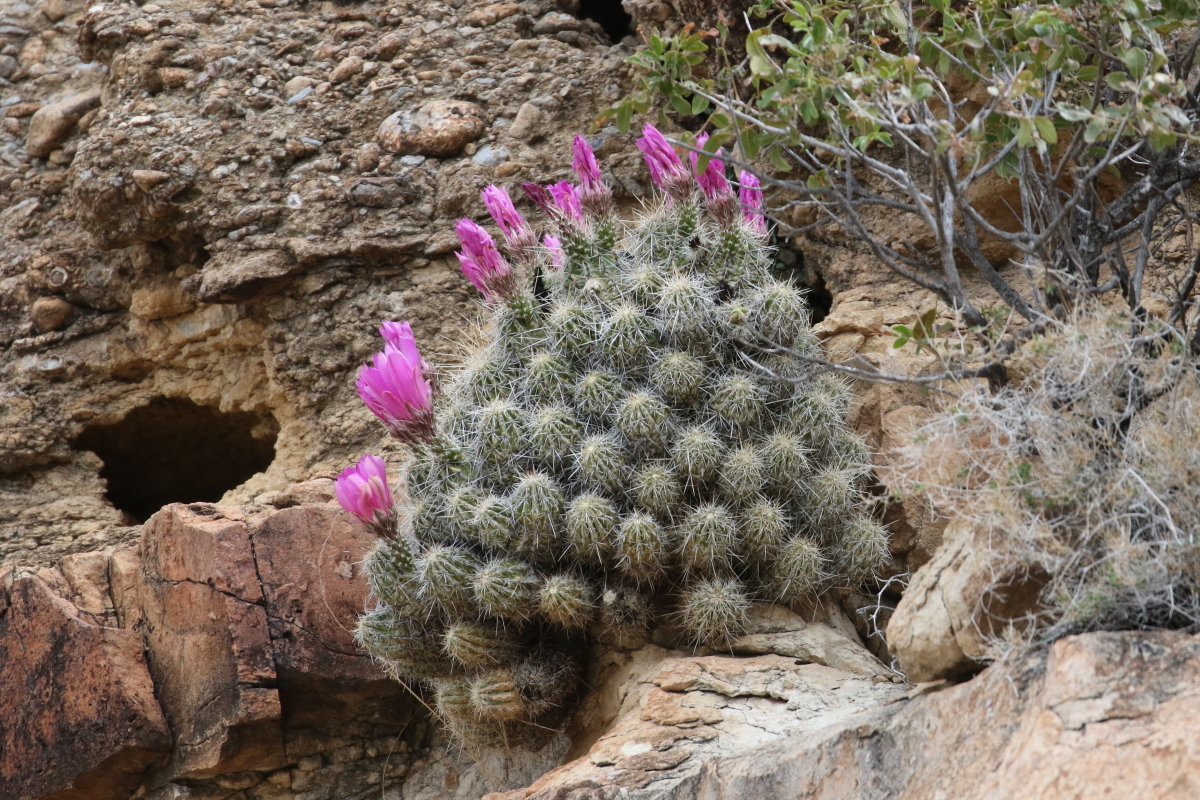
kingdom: Plantae
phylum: Tracheophyta
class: Magnoliopsida
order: Caryophyllales
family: Cactaceae
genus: Echinocereus
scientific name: Echinocereus stramineus
